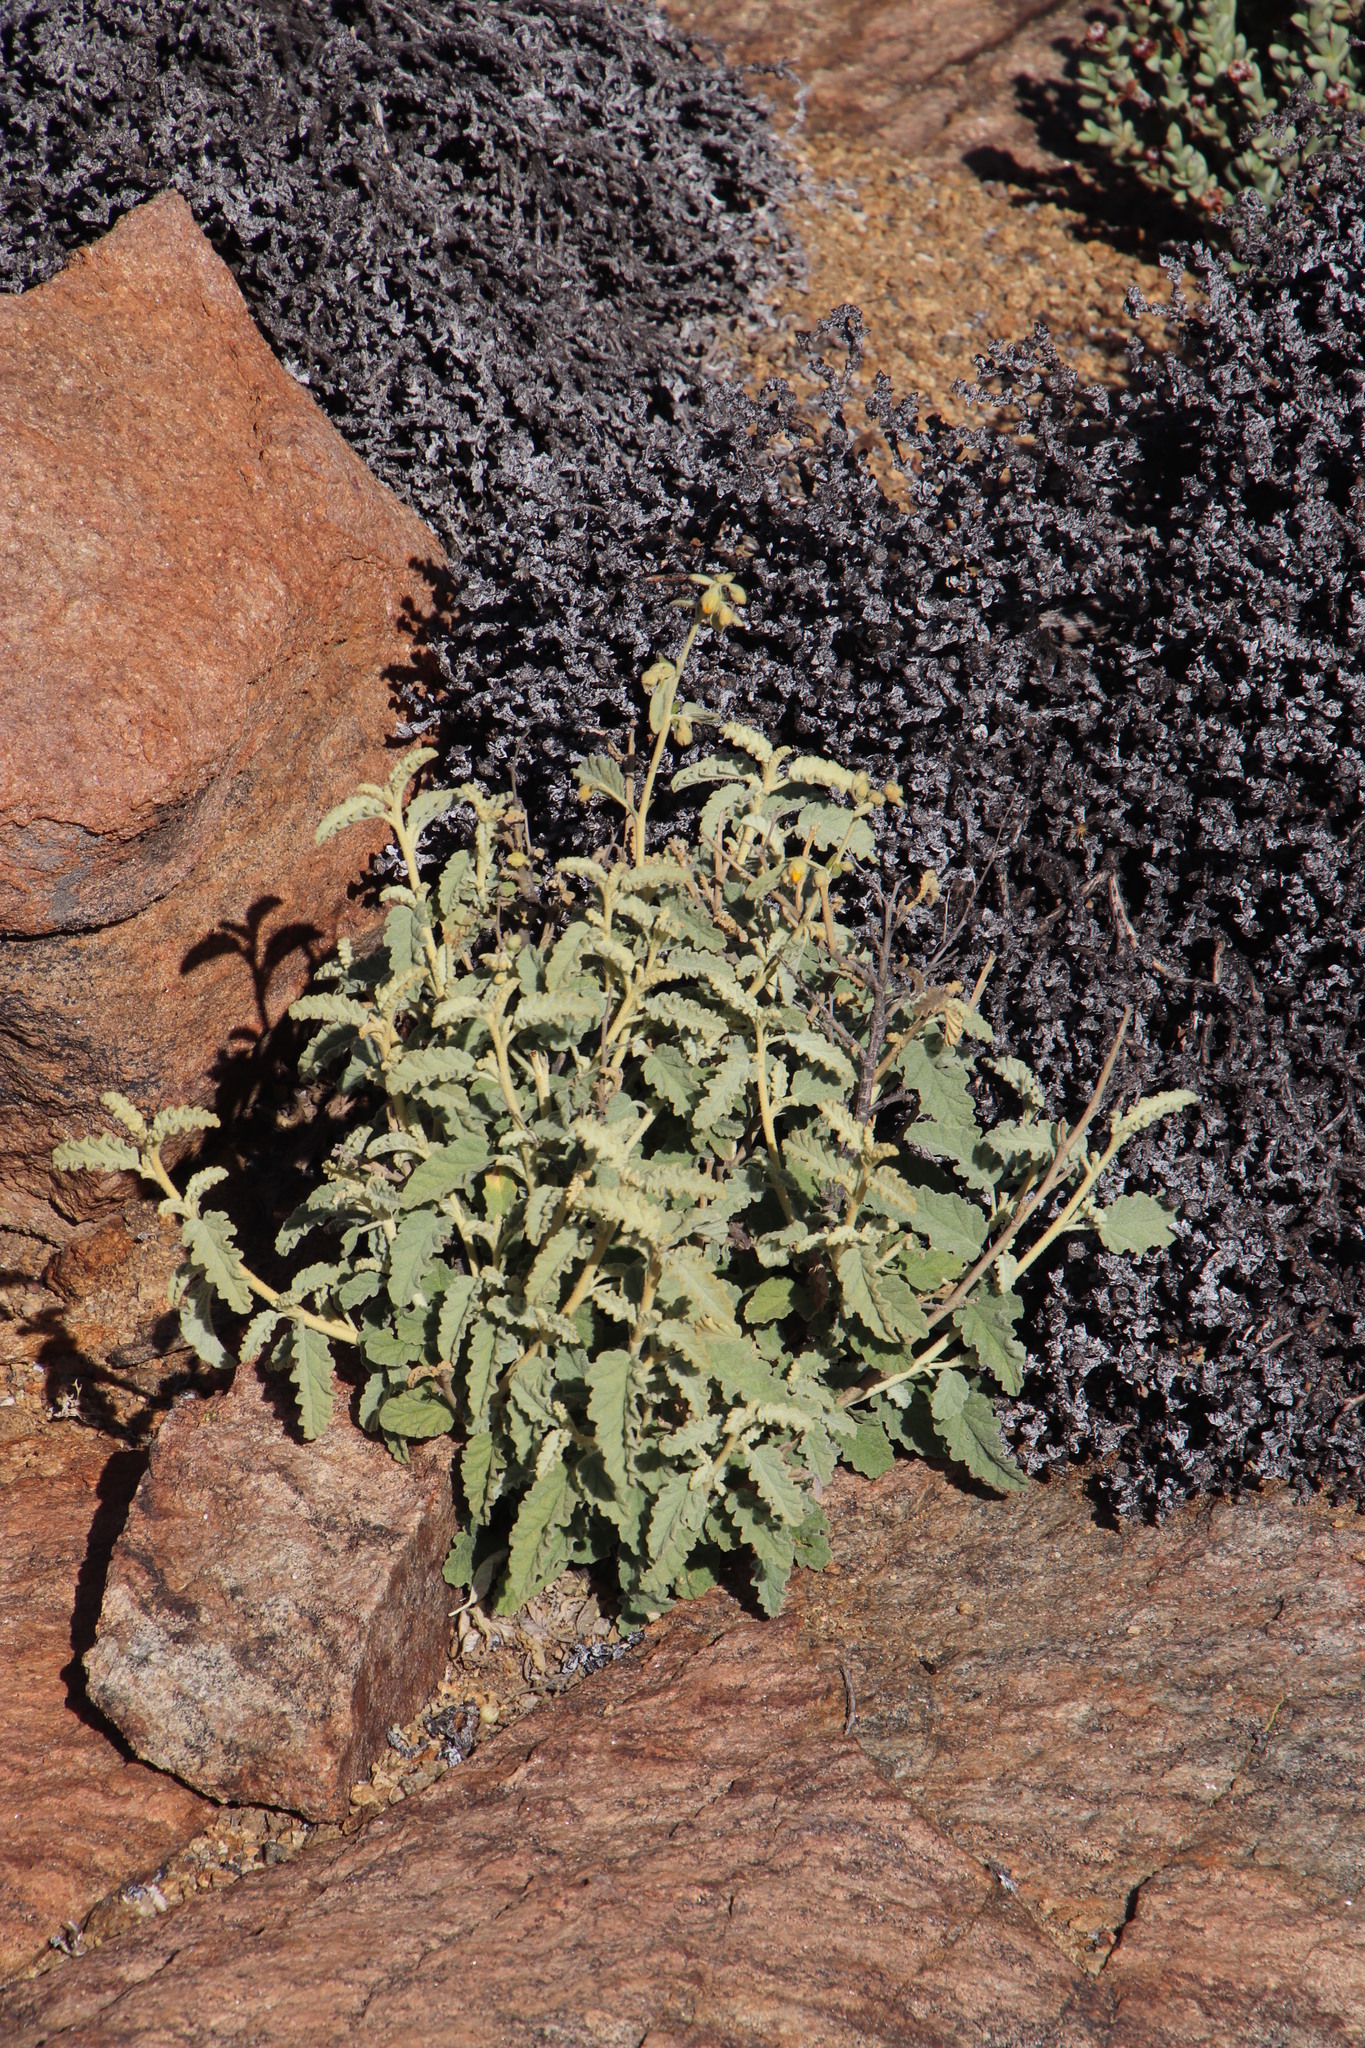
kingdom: Plantae
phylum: Tracheophyta
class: Magnoliopsida
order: Malvales
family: Malvaceae
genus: Hermannia
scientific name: Hermannia disermifolia
